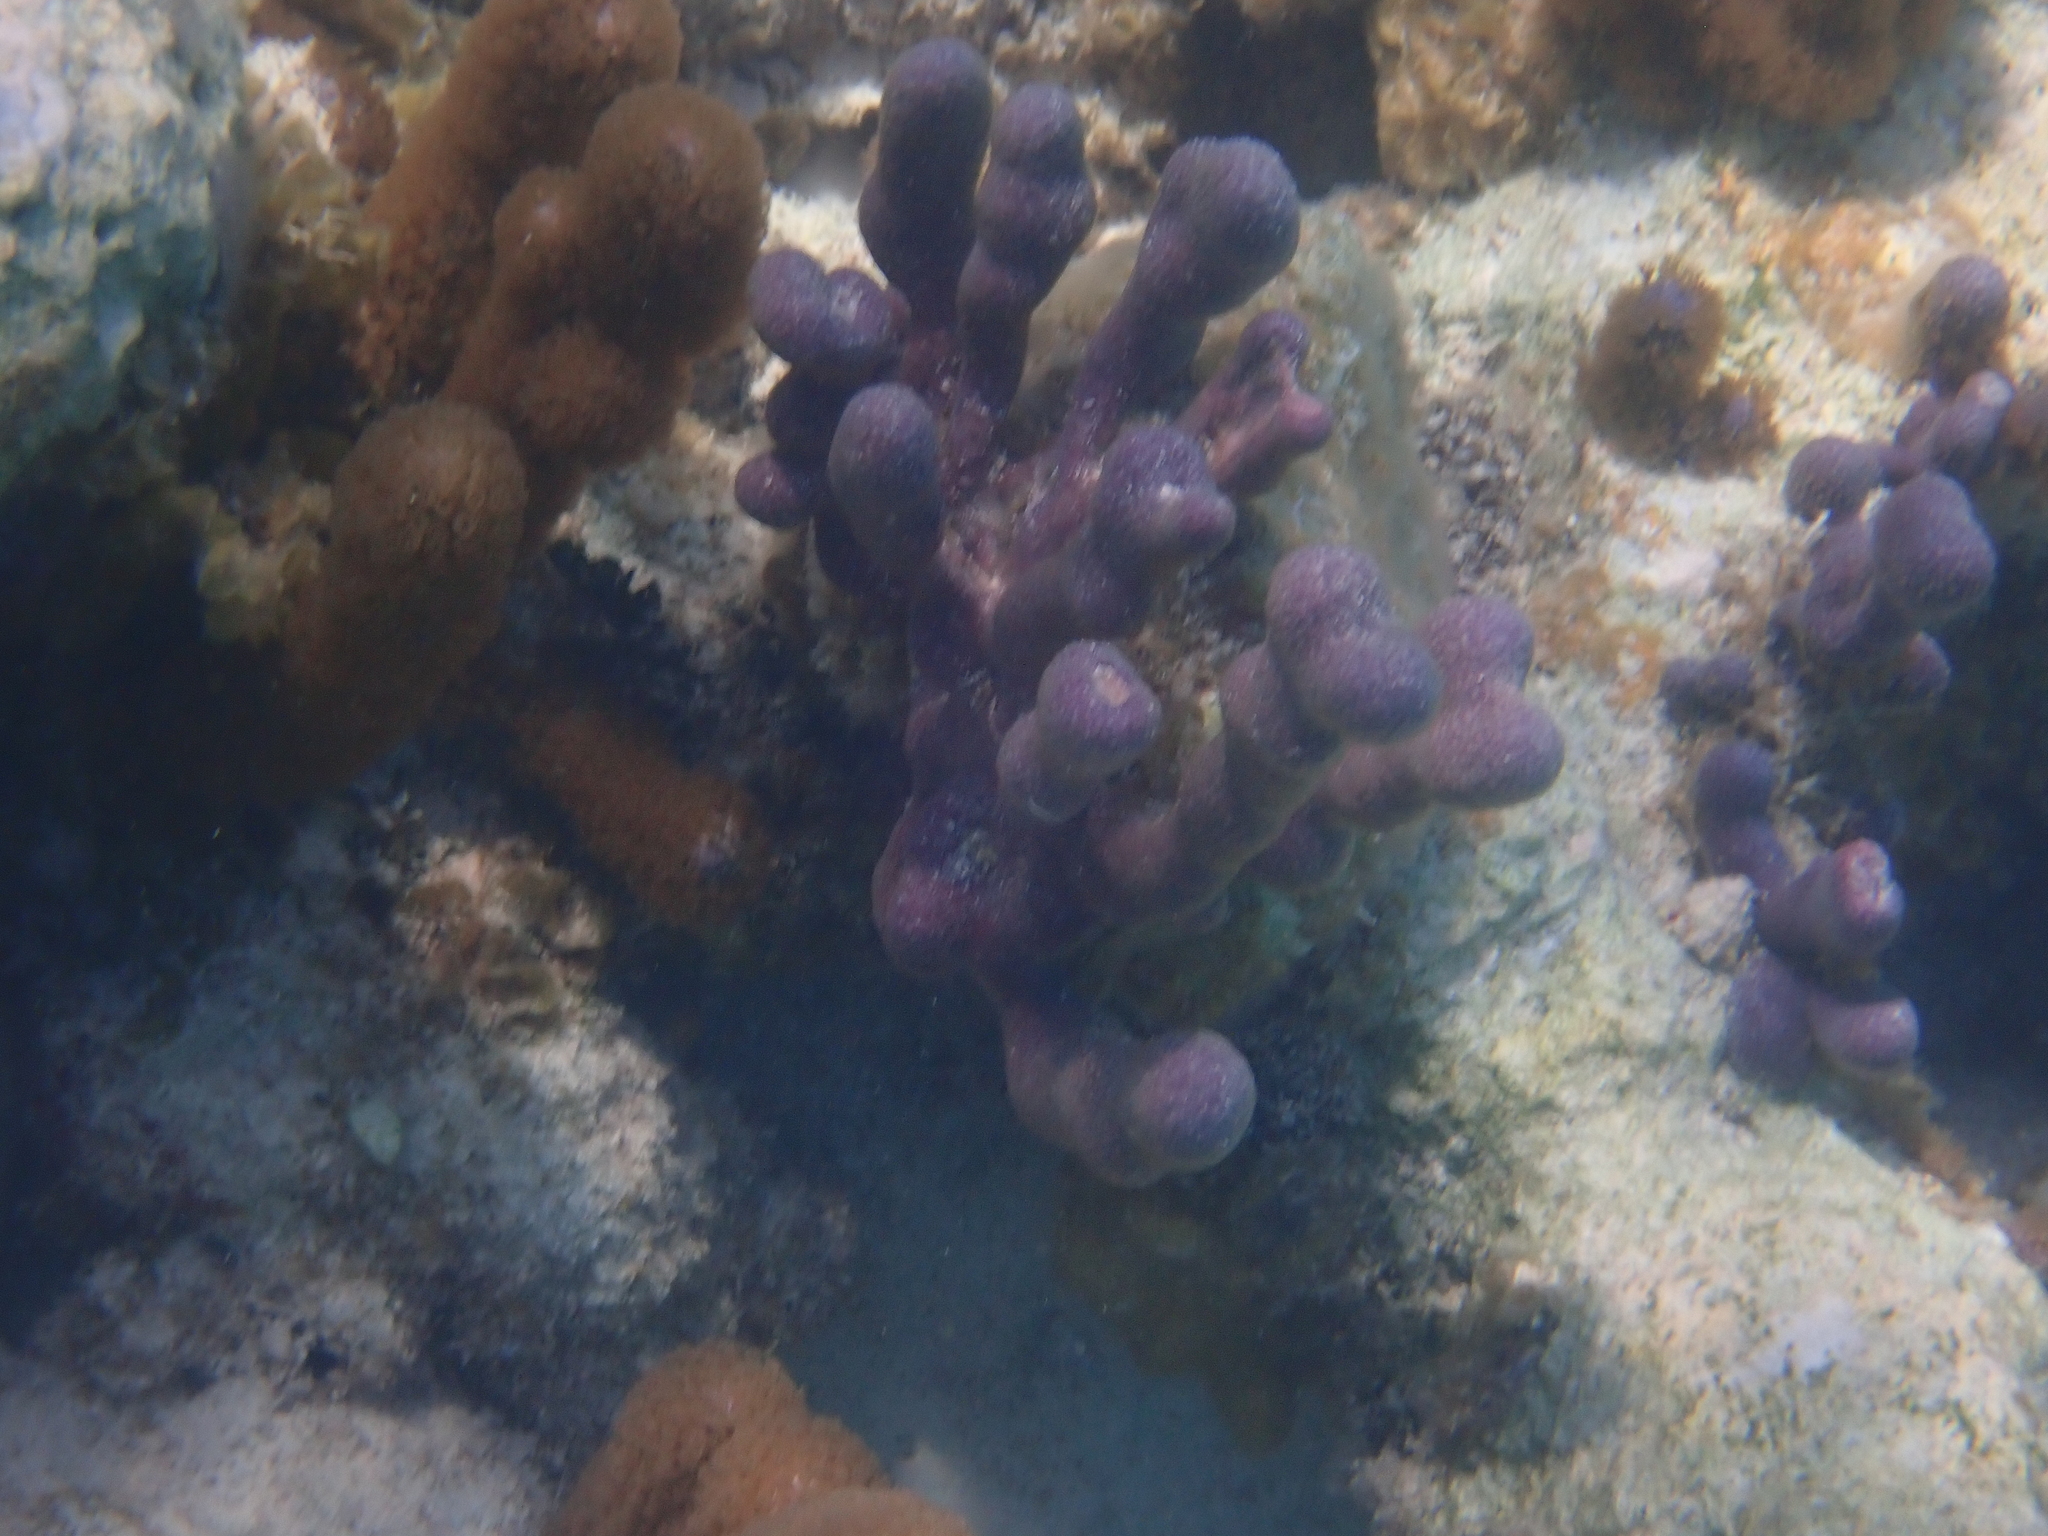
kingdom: Animalia
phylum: Cnidaria
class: Anthozoa
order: Scleralcyonacea
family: Briareidae
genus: Briareum
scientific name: Briareum asbestinum
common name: Corky sea finger
